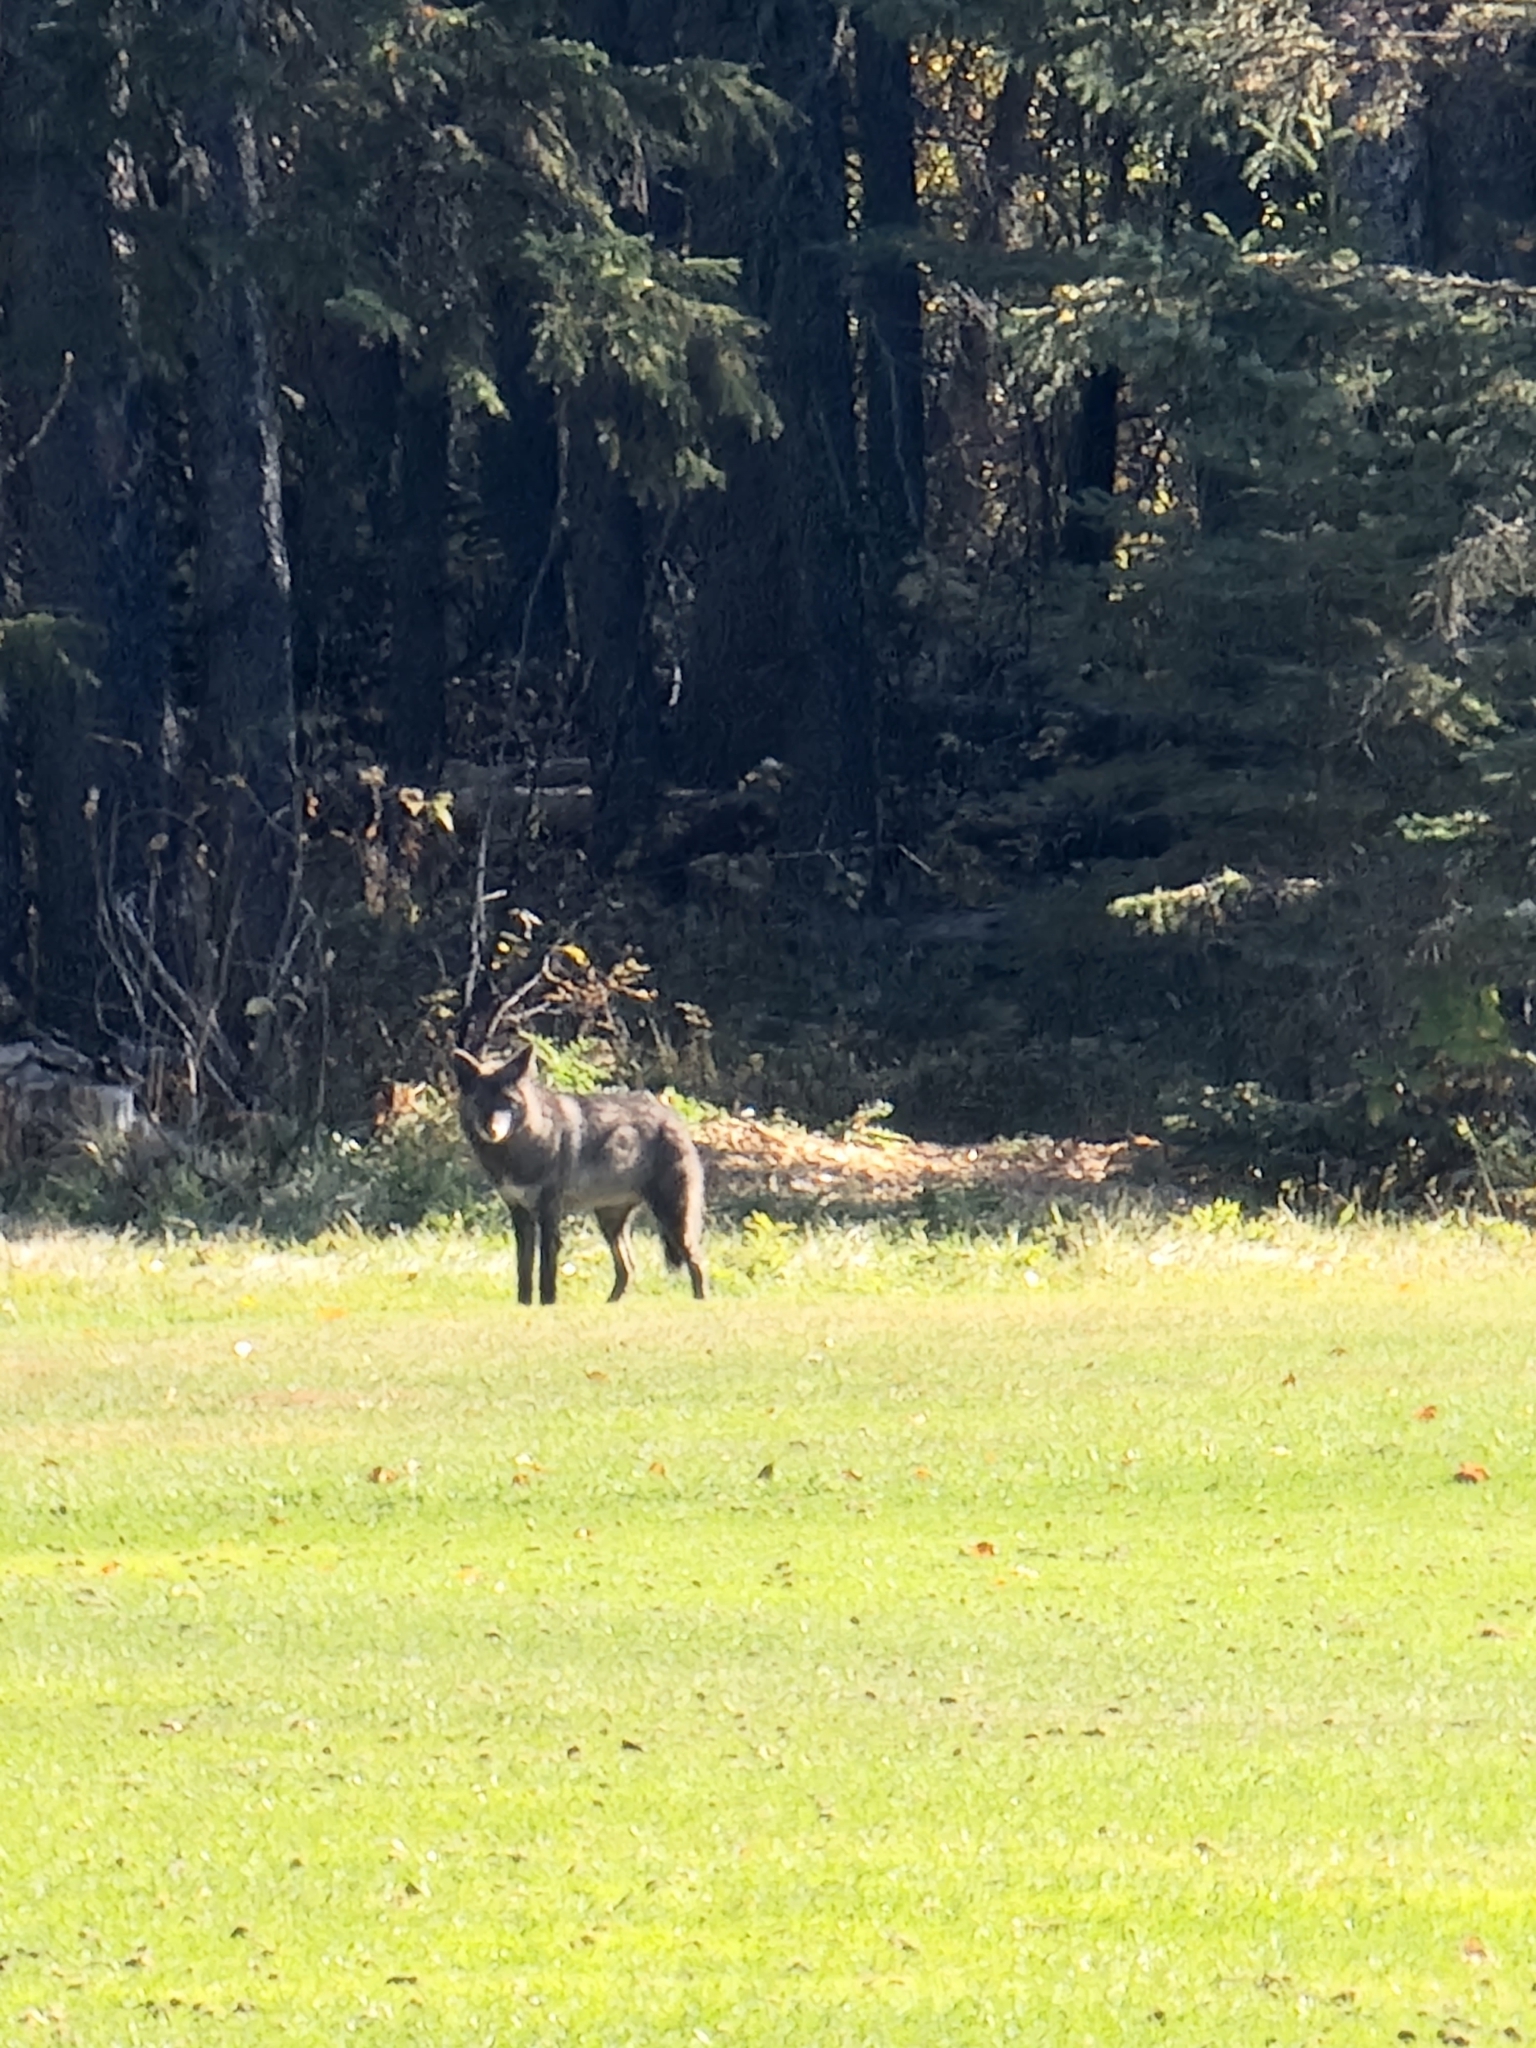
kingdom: Animalia
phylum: Chordata
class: Mammalia
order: Carnivora
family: Canidae
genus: Canis
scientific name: Canis latrans
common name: Coyote
